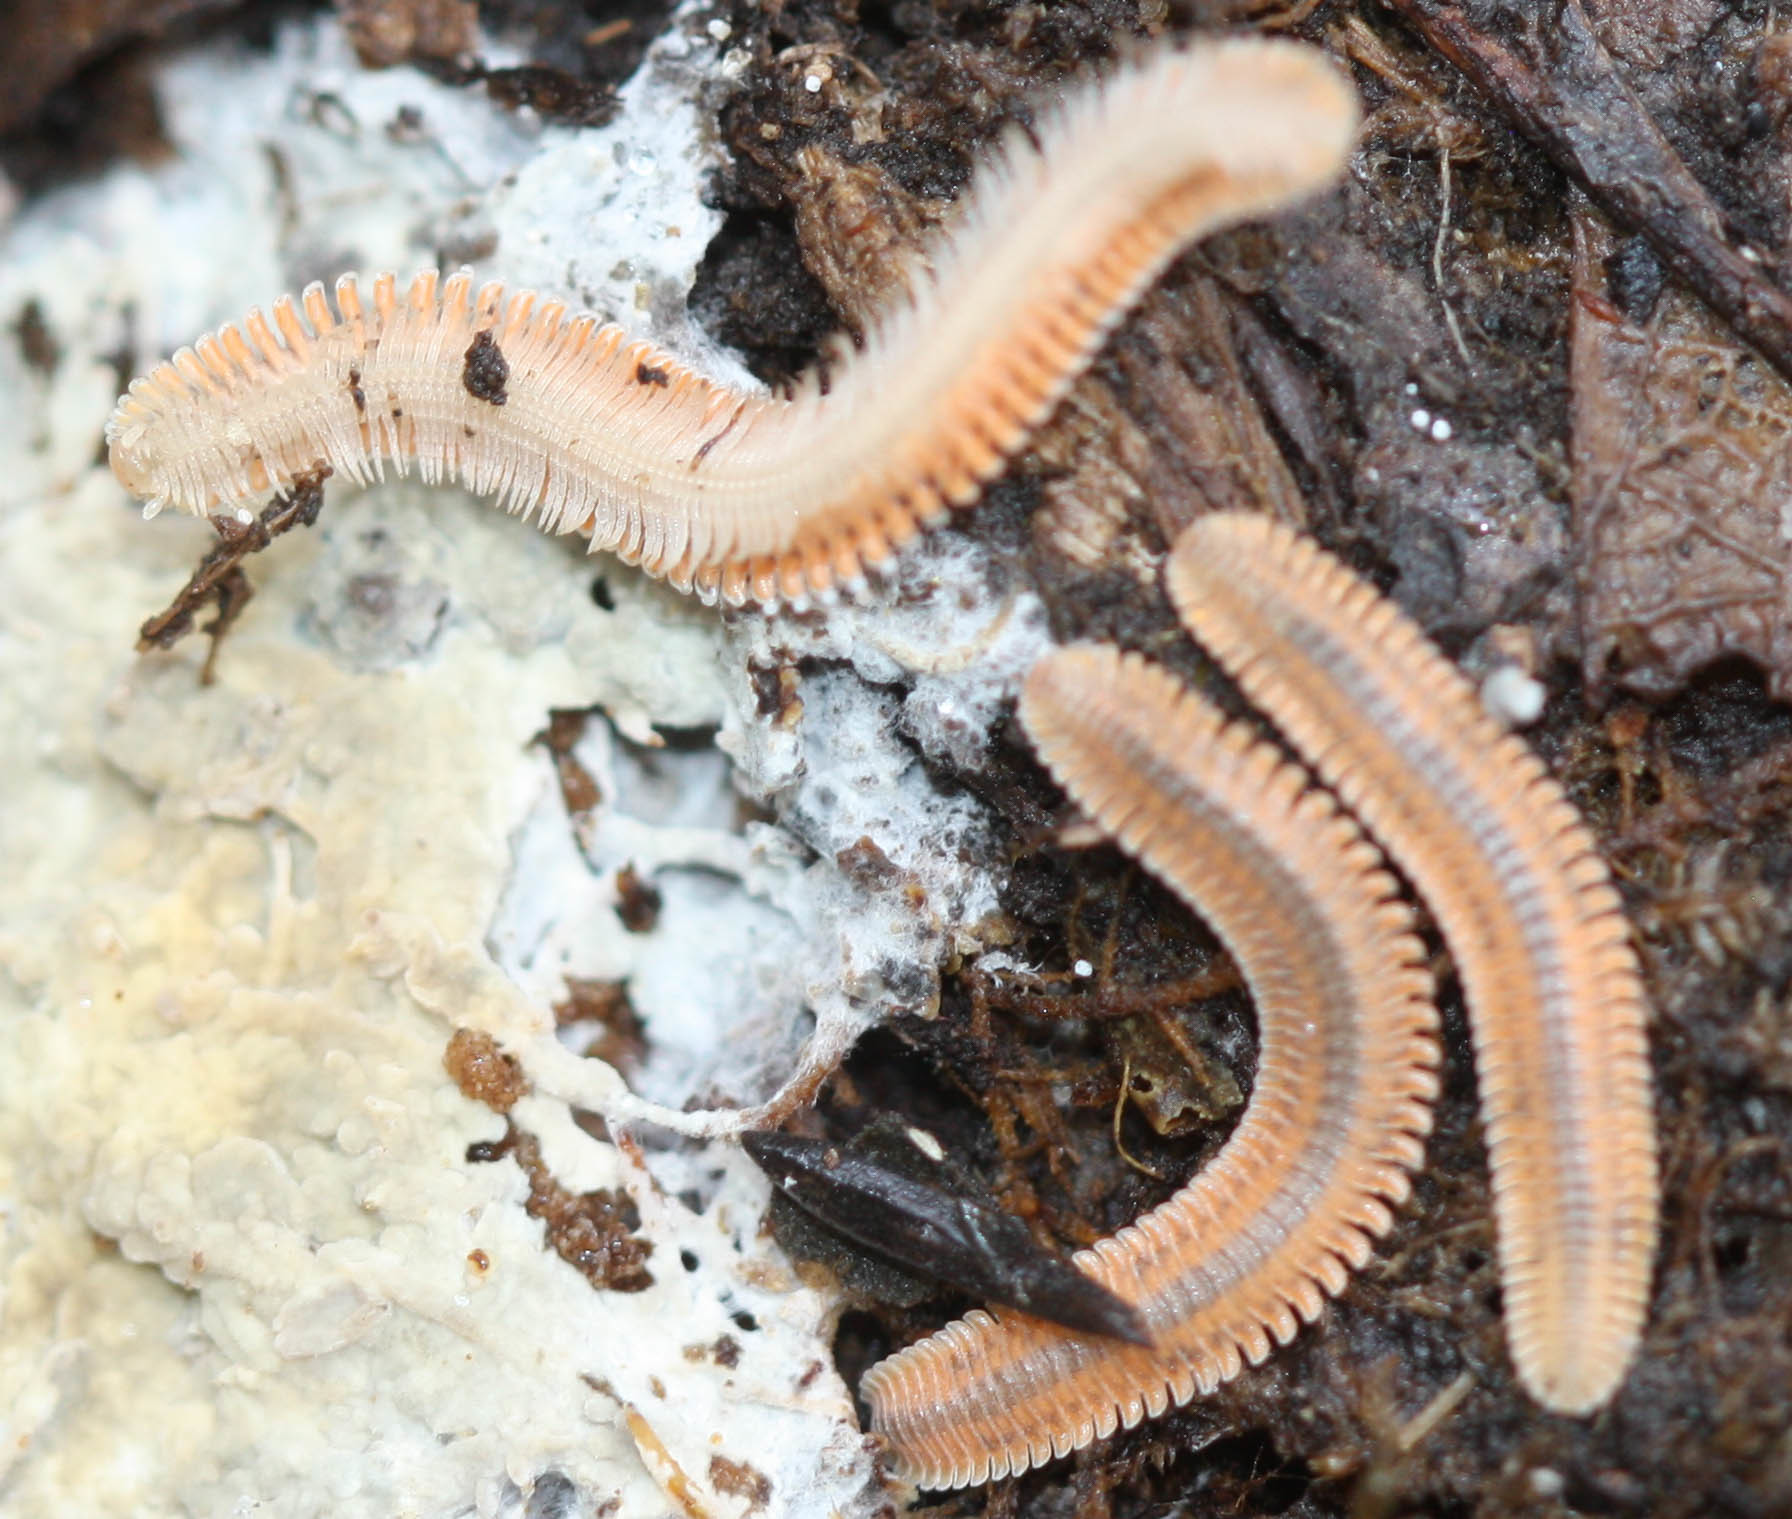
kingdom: Animalia
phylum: Arthropoda
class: Diplopoda
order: Platydesmida
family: Andrognathidae
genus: Brachycybe
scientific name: Brachycybe producta
